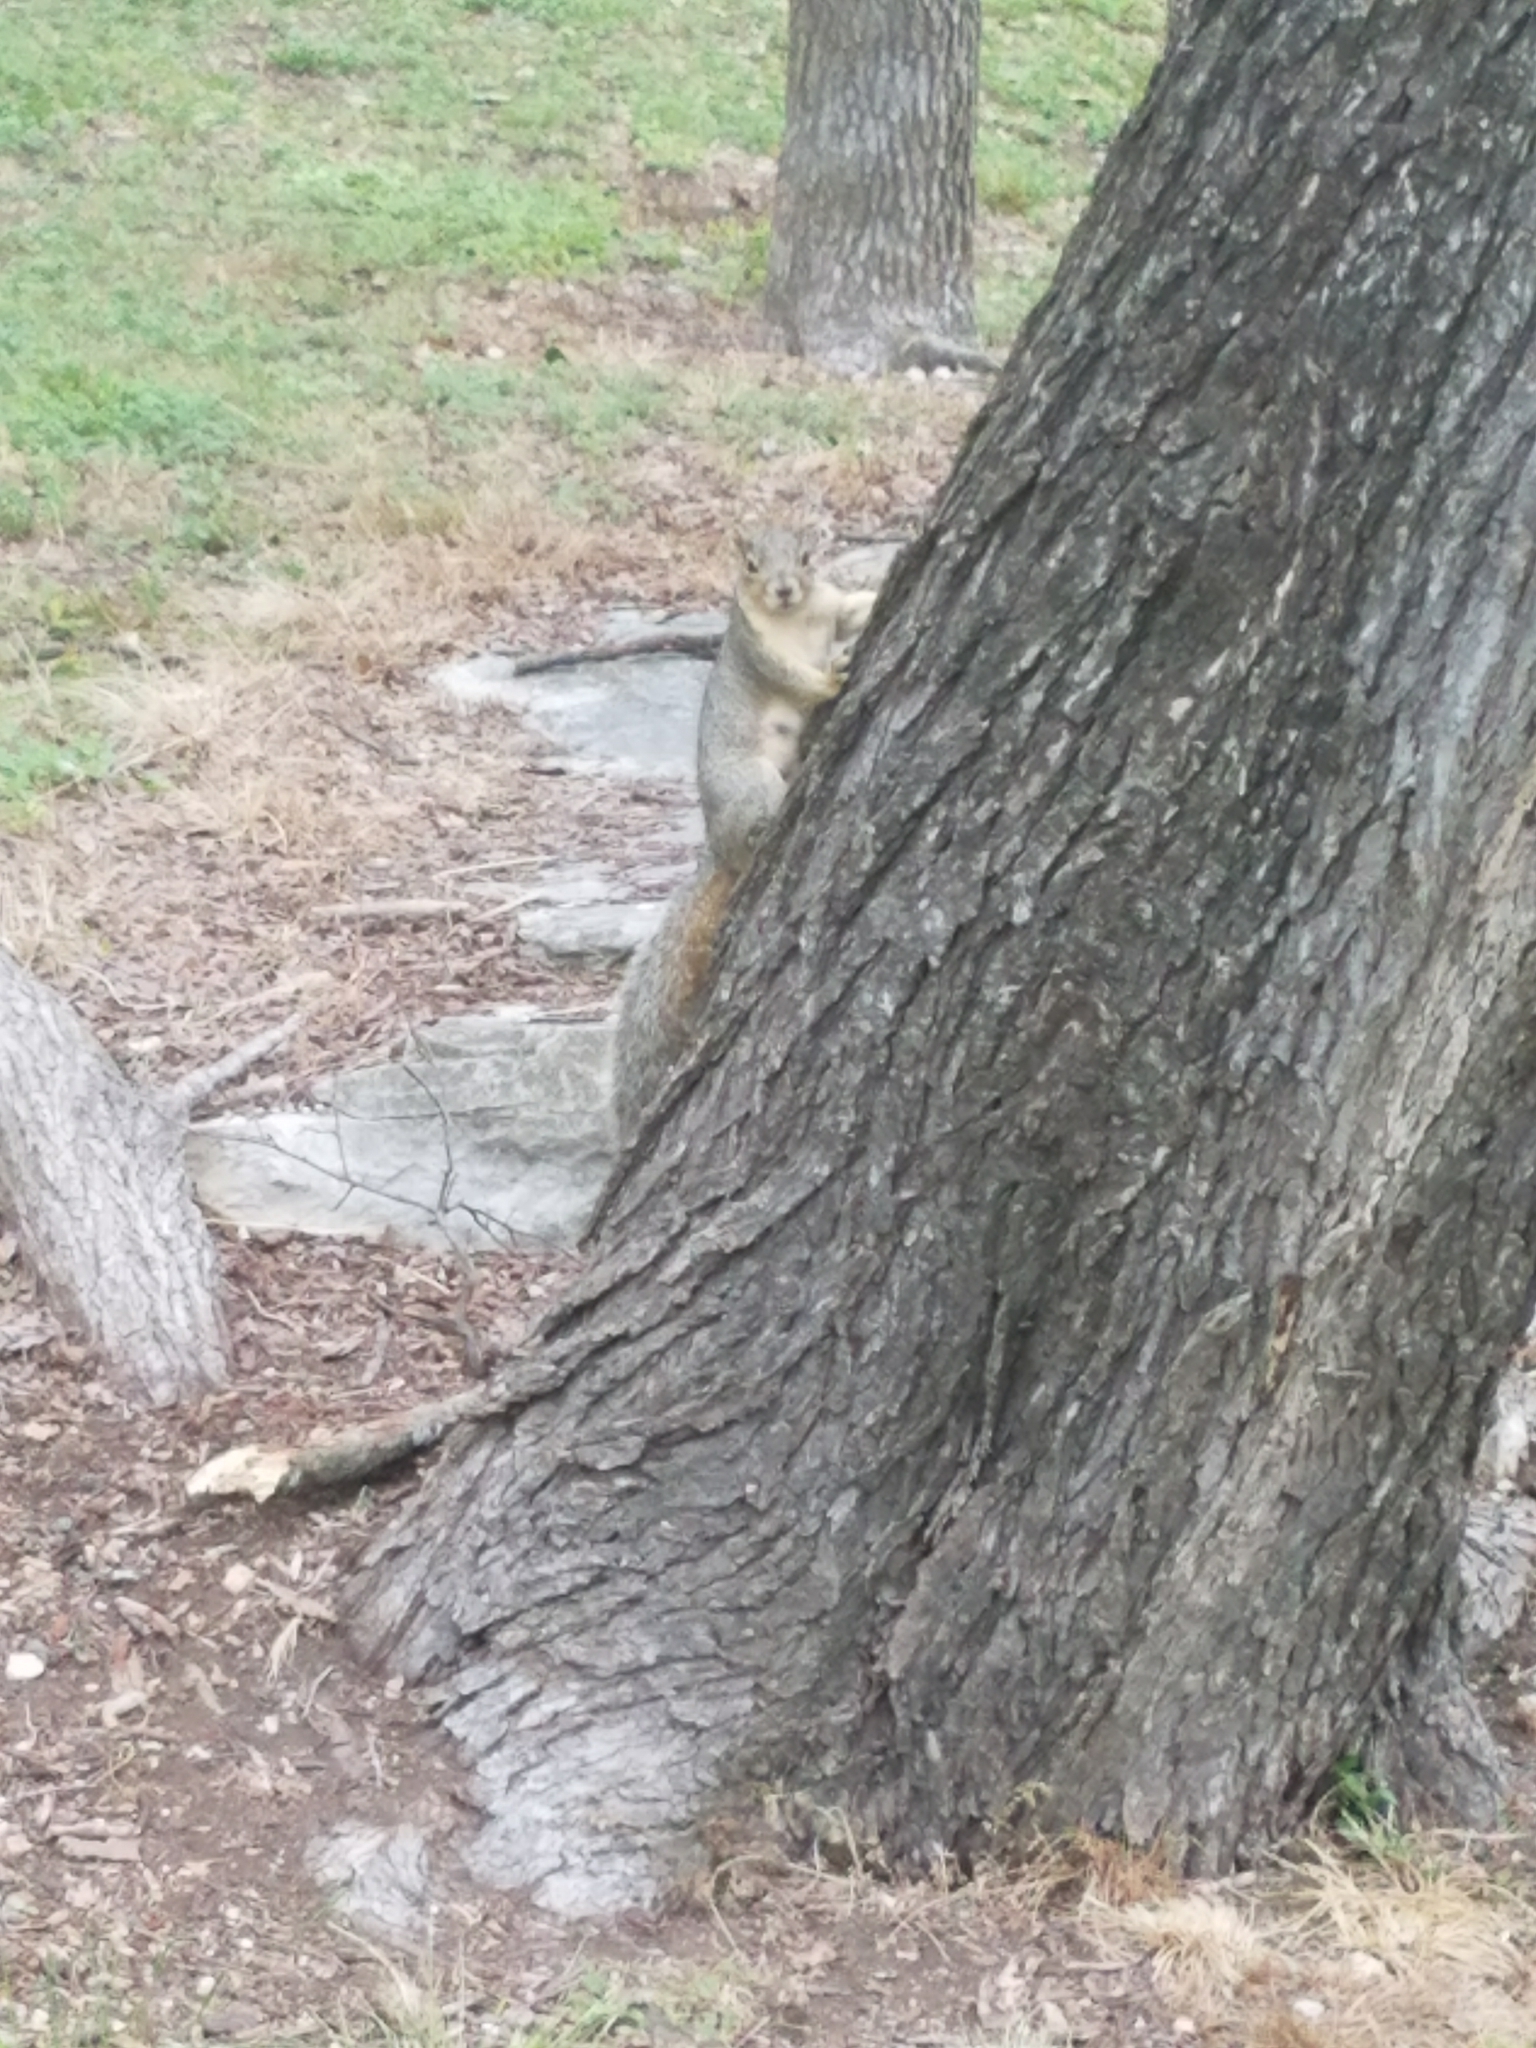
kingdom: Animalia
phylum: Chordata
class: Mammalia
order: Rodentia
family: Sciuridae
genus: Sciurus
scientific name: Sciurus niger
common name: Fox squirrel
